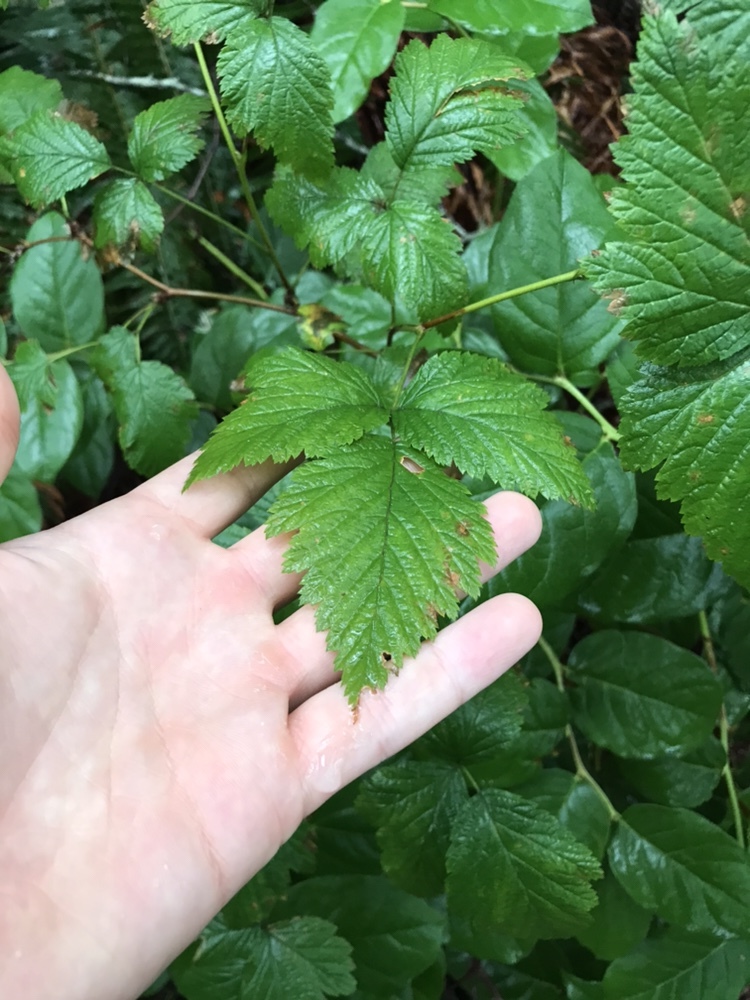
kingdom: Plantae
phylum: Tracheophyta
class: Magnoliopsida
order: Rosales
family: Rosaceae
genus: Rubus
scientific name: Rubus spectabilis
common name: Salmonberry
